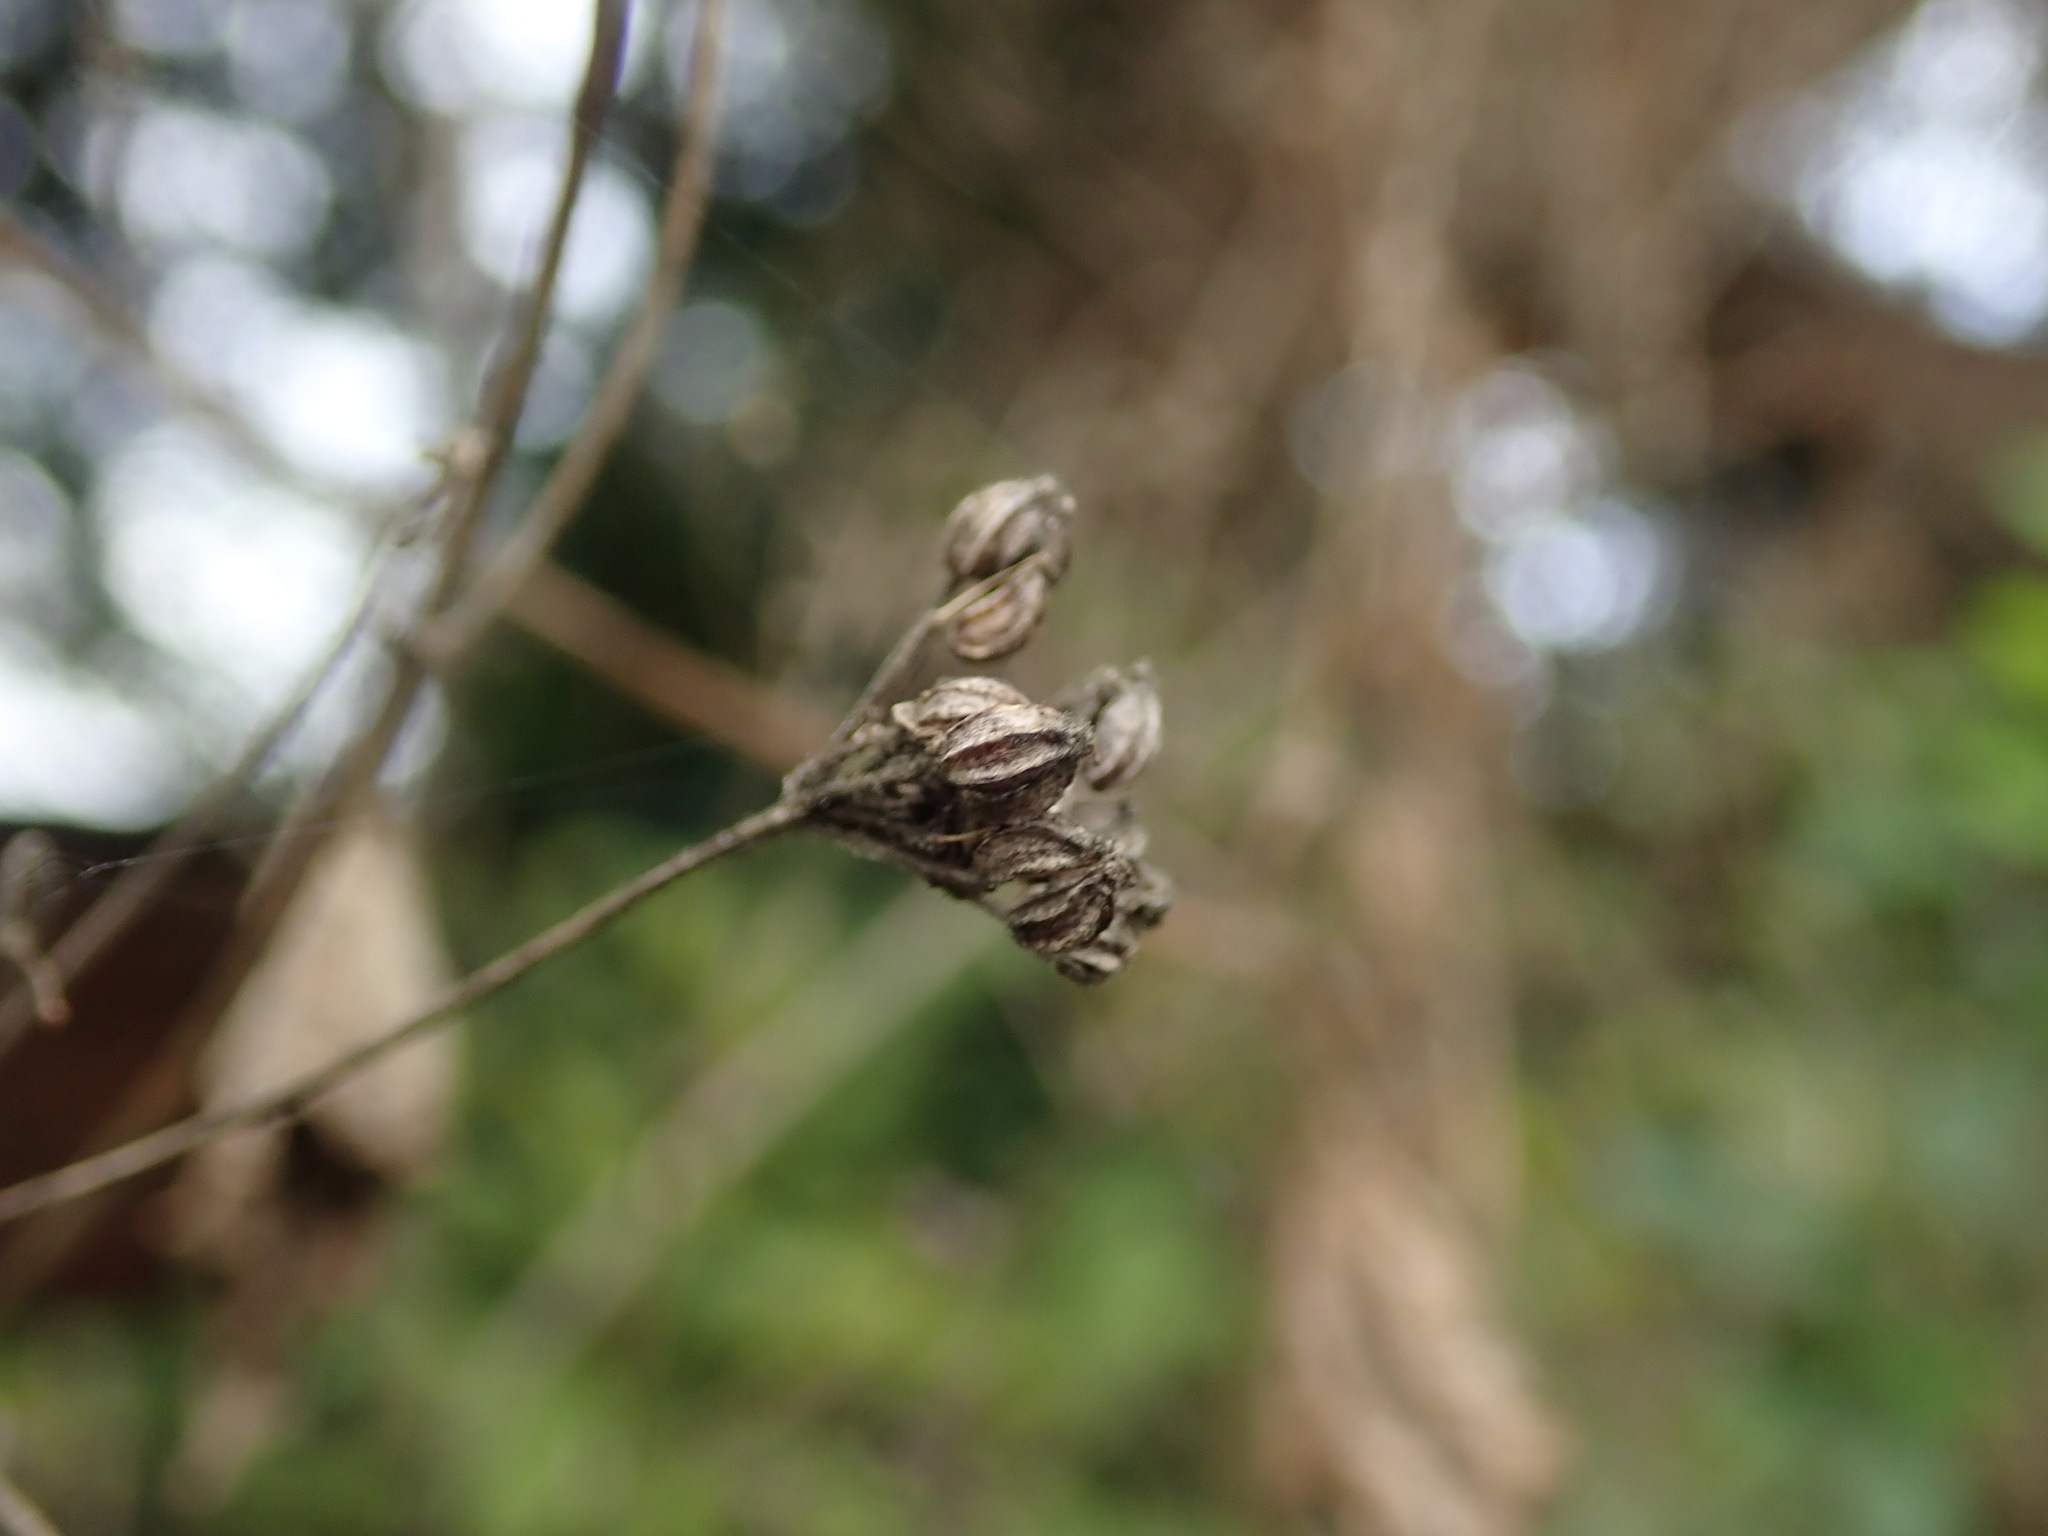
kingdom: Plantae
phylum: Tracheophyta
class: Magnoliopsida
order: Apiales
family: Apiaceae
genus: Conium
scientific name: Conium maculatum
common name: Hemlock
